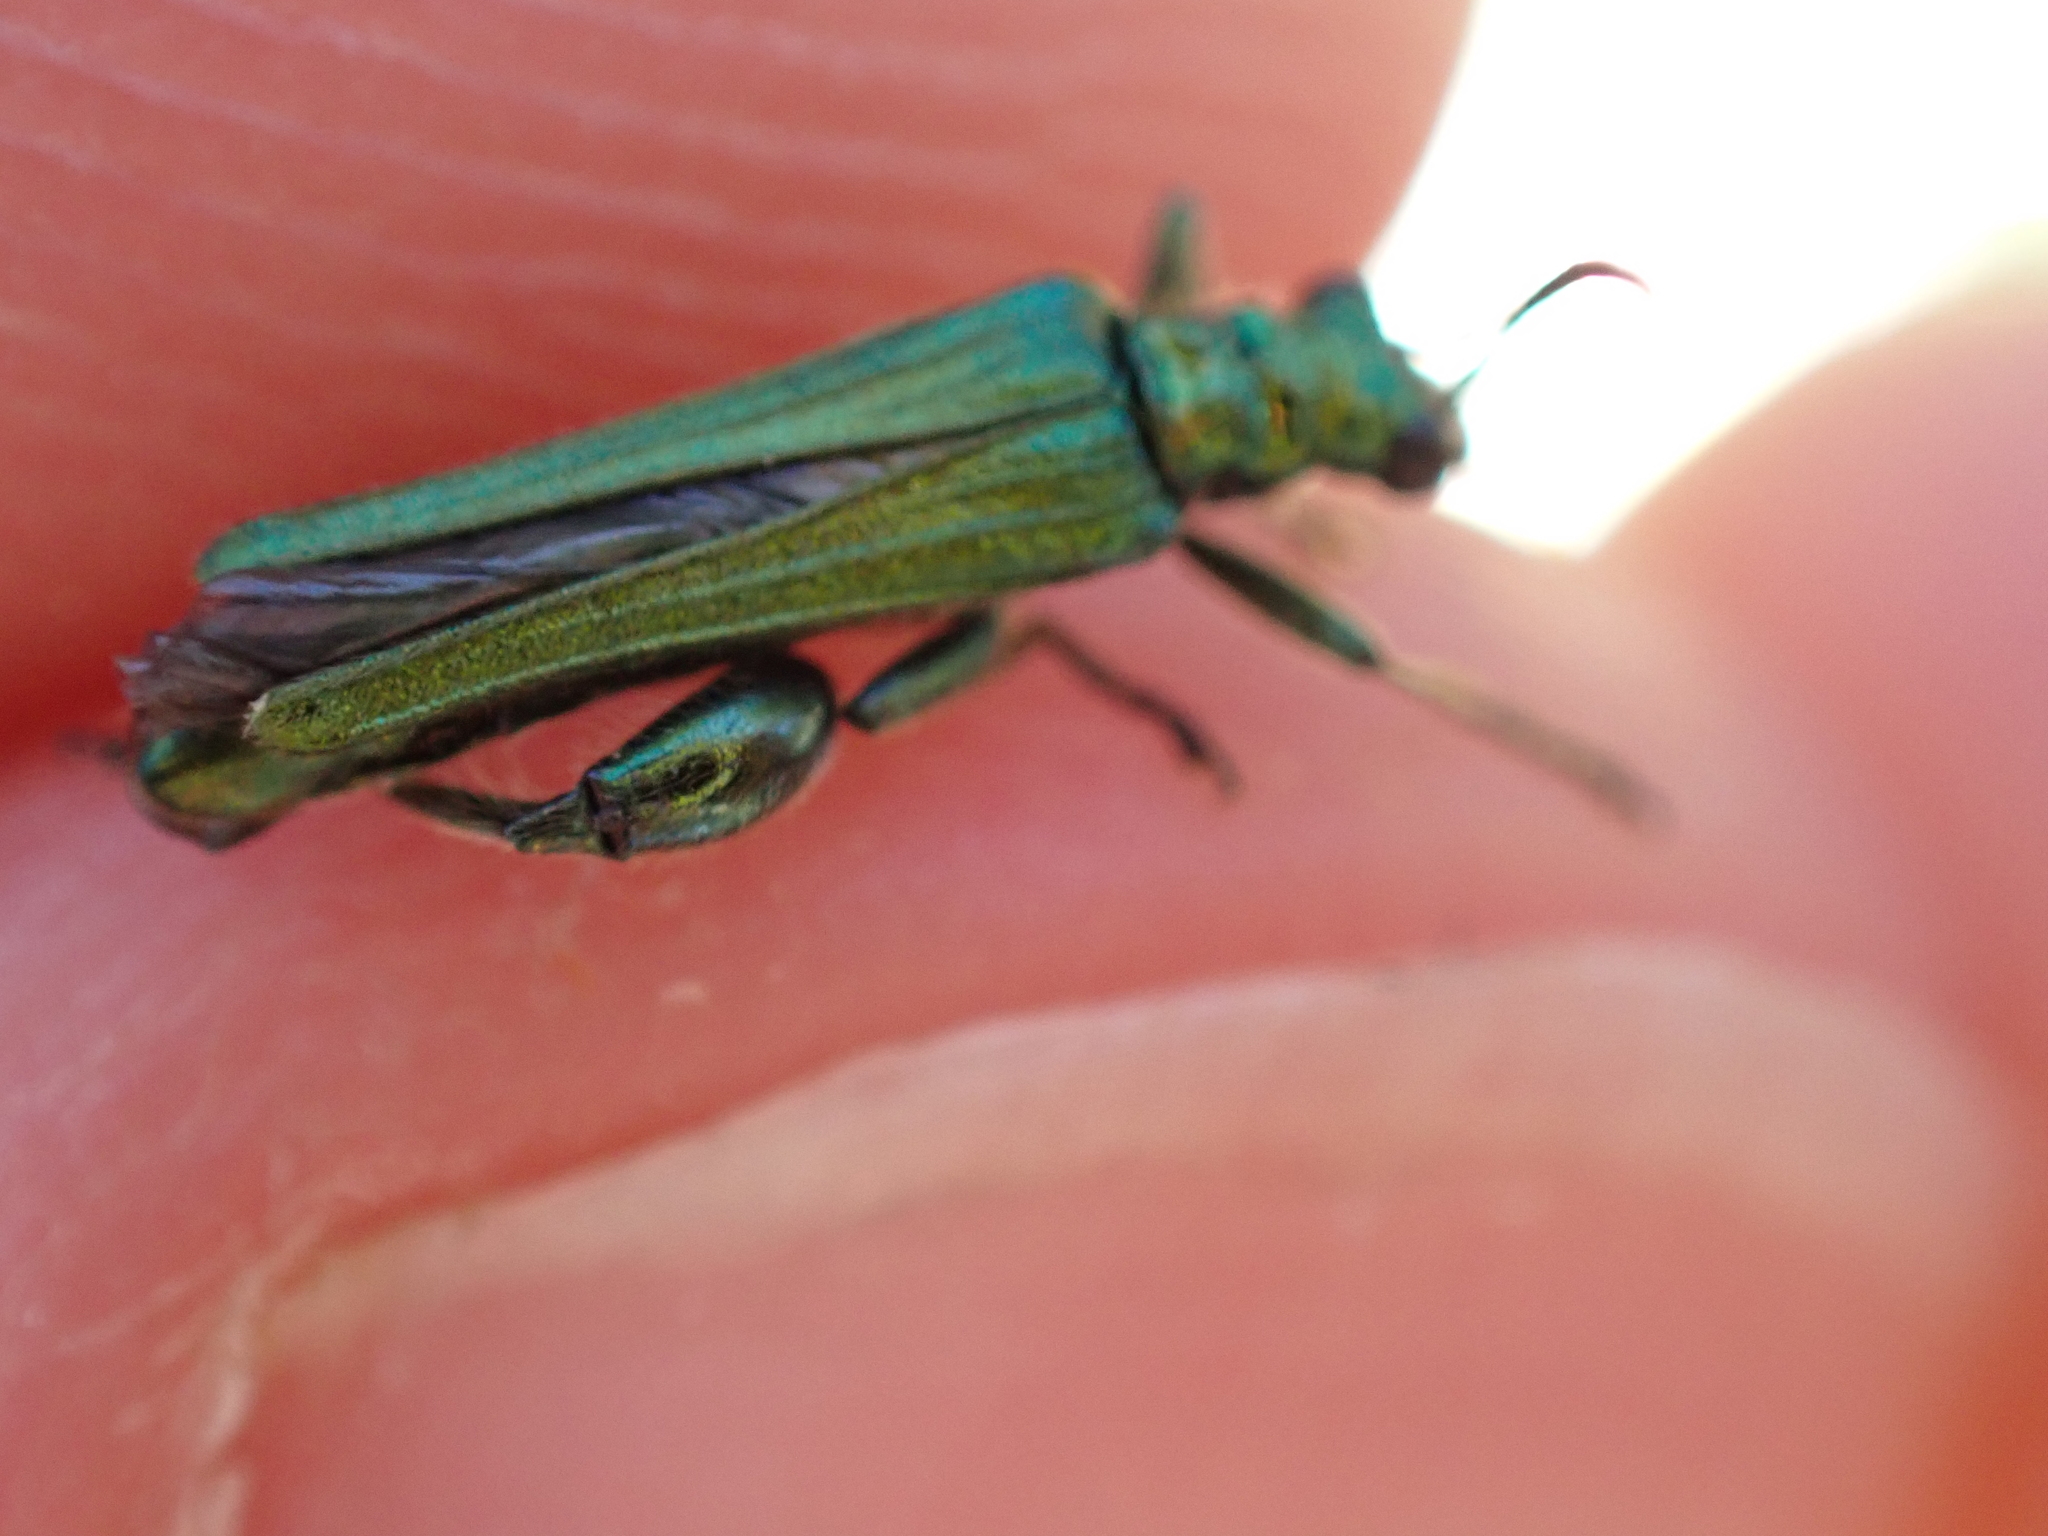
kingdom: Animalia
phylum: Arthropoda
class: Insecta
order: Coleoptera
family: Oedemeridae
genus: Oedemera
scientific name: Oedemera nobilis
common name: Swollen-thighed beetle
